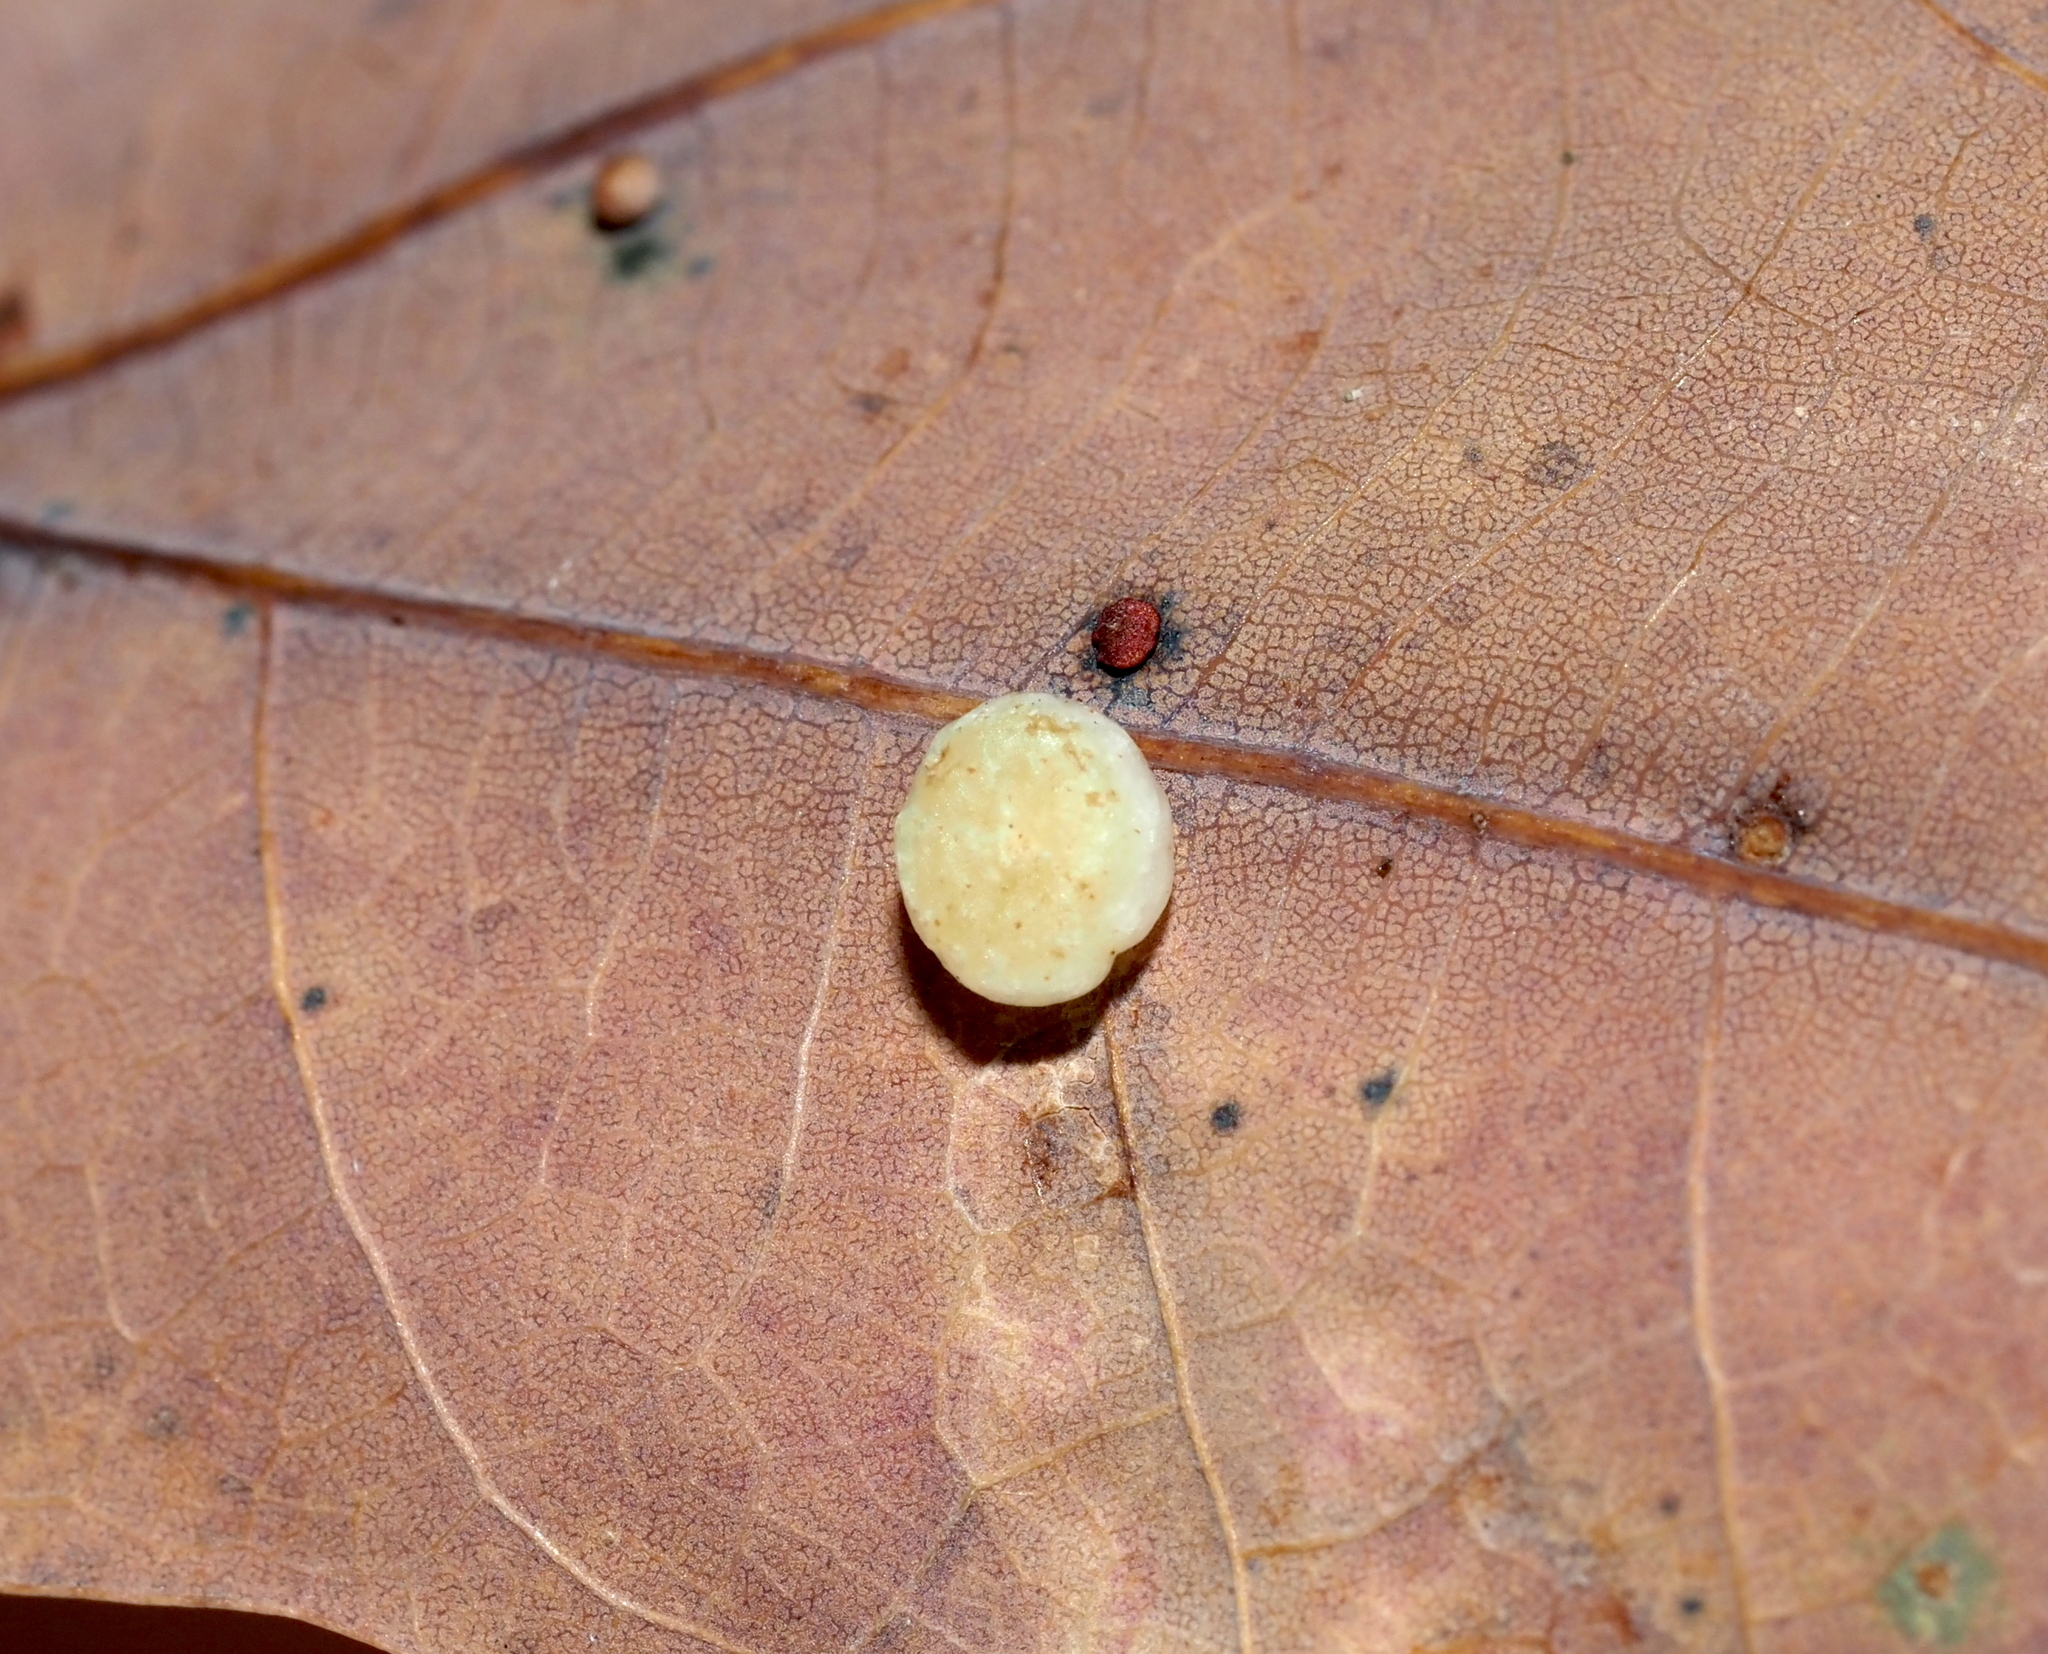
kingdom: Animalia
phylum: Arthropoda
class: Insecta
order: Hymenoptera
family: Cynipidae
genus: Phylloteras
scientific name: Phylloteras
